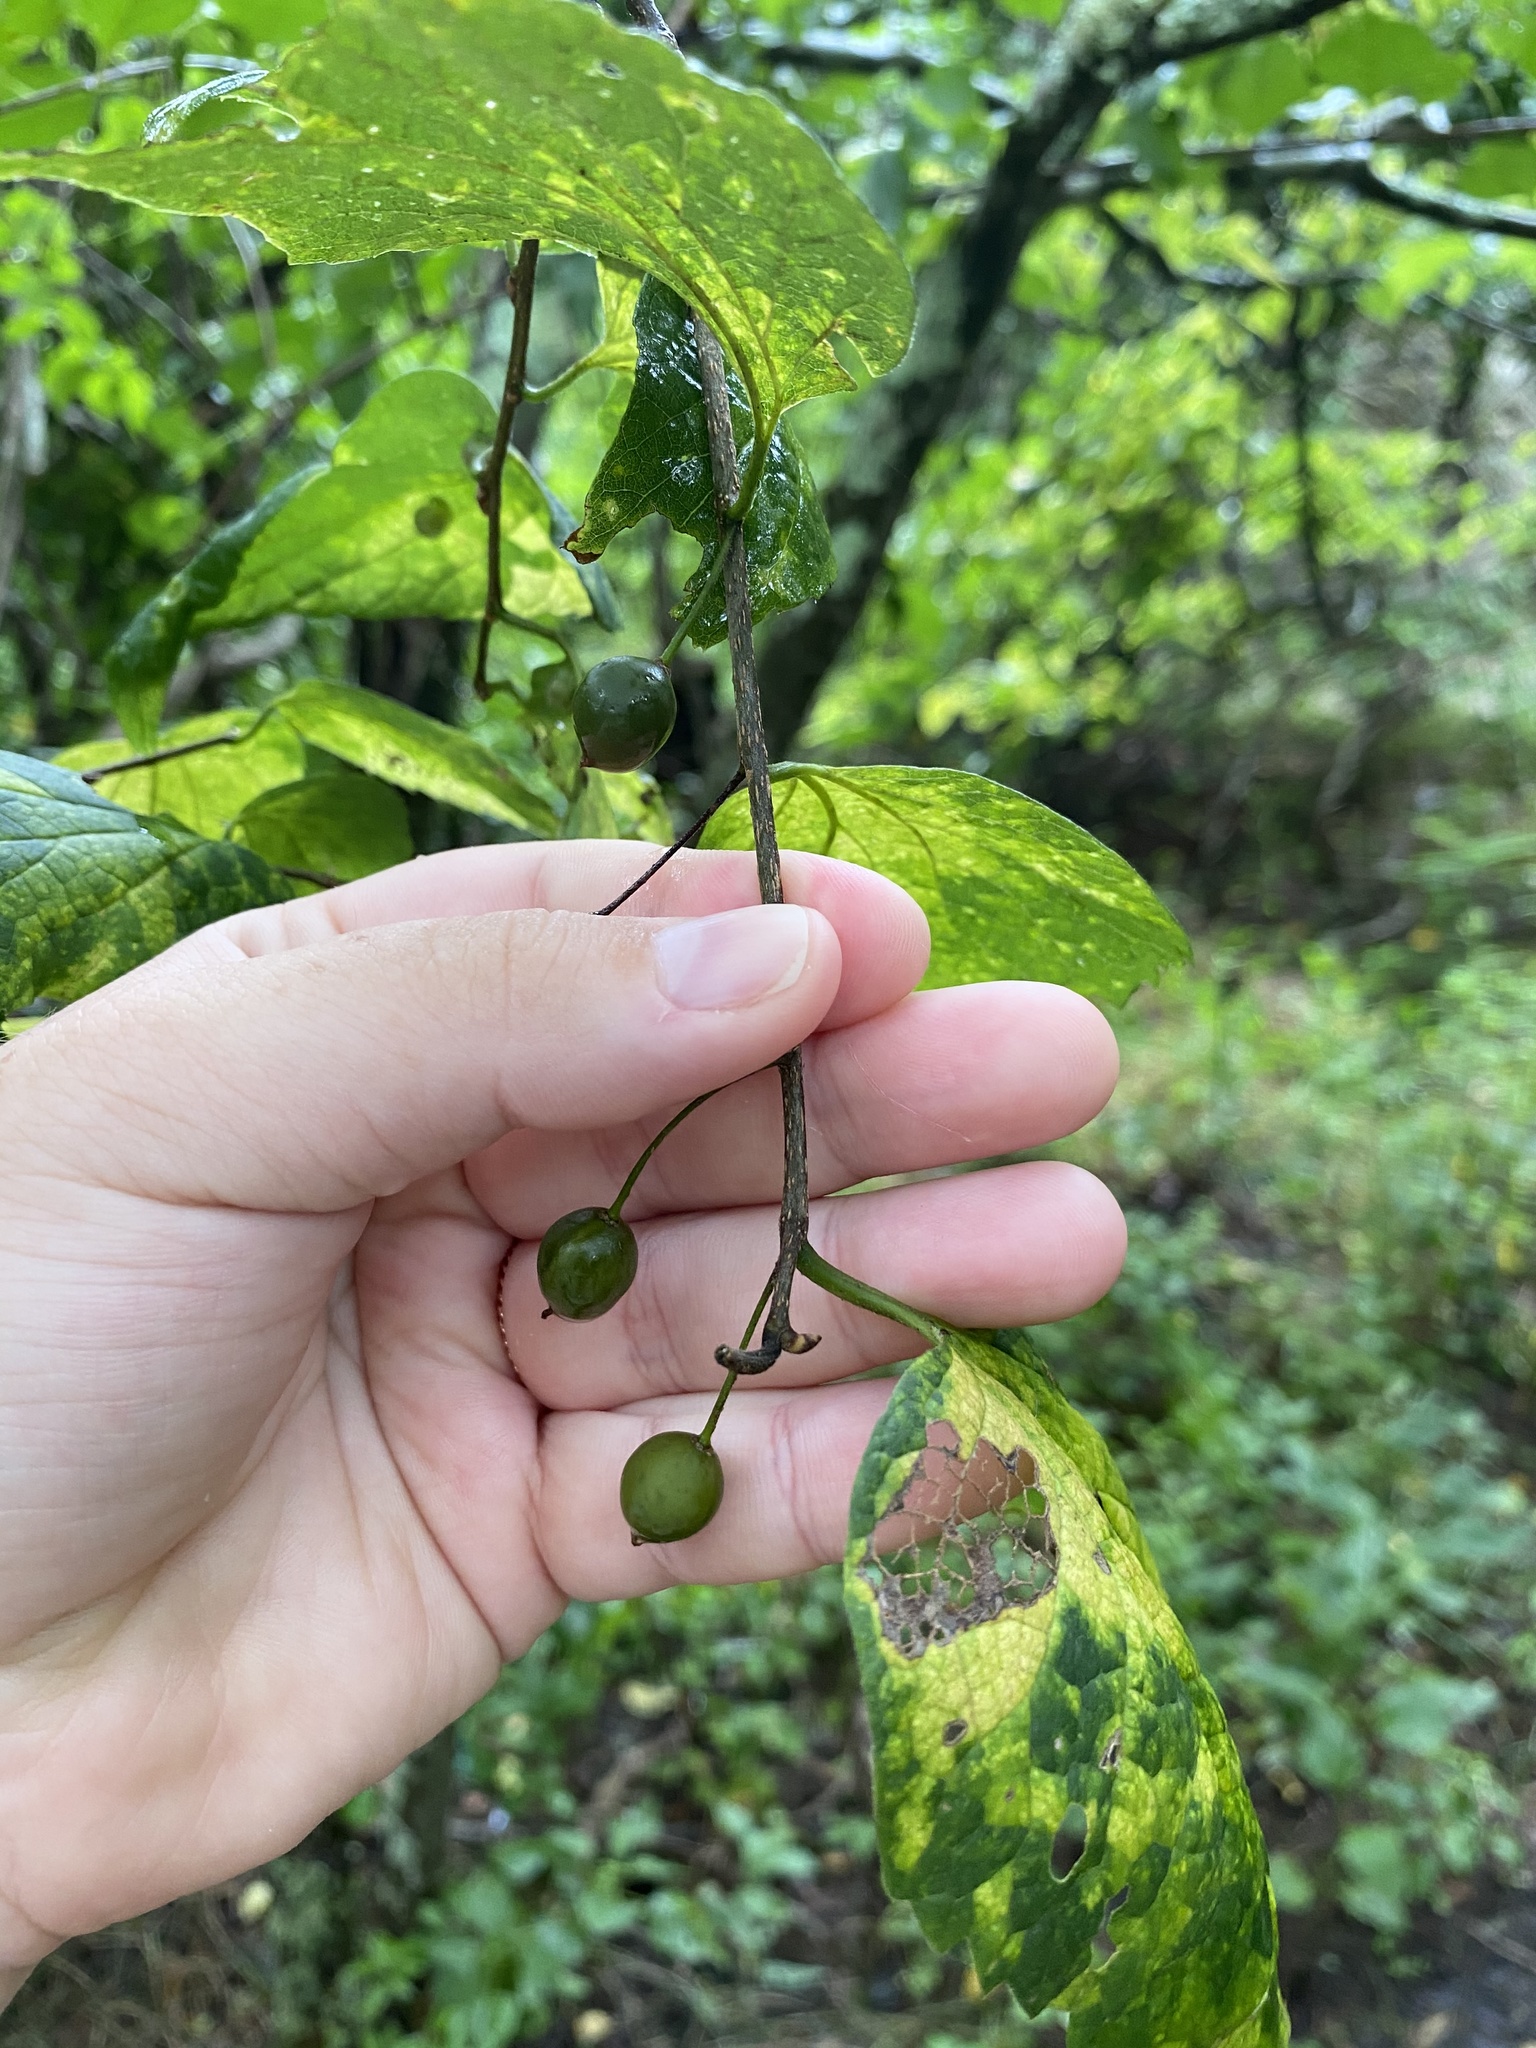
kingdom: Plantae
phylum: Tracheophyta
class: Magnoliopsida
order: Rosales
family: Cannabaceae
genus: Celtis
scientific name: Celtis occidentalis
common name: Common hackberry
